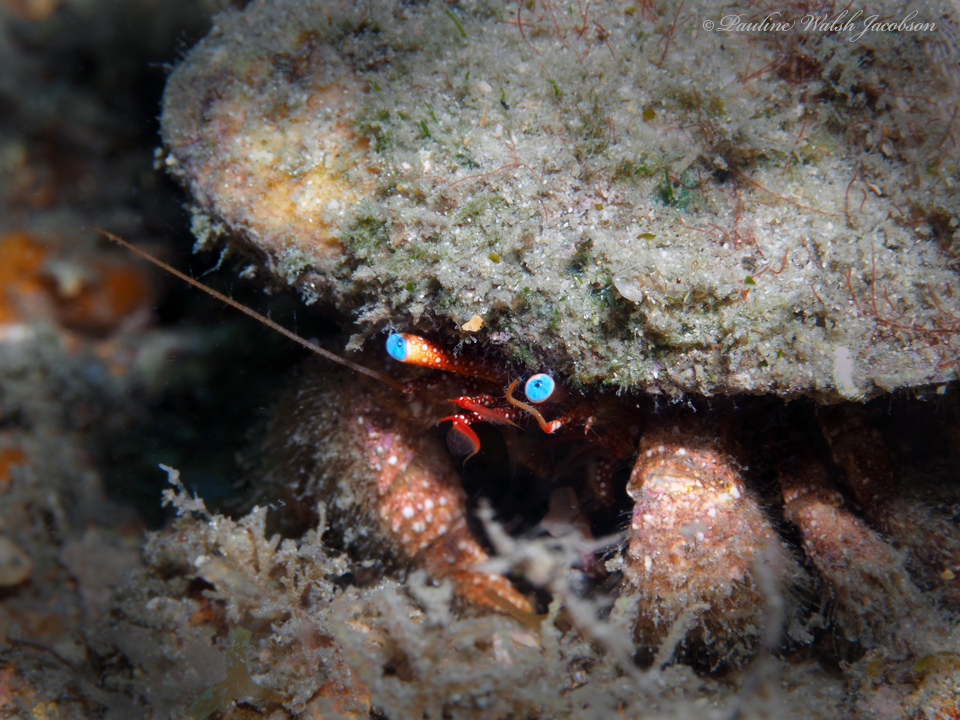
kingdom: Animalia
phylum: Arthropoda
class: Malacostraca
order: Decapoda
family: Diogenidae
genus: Paguristes
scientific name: Paguristes wassi
